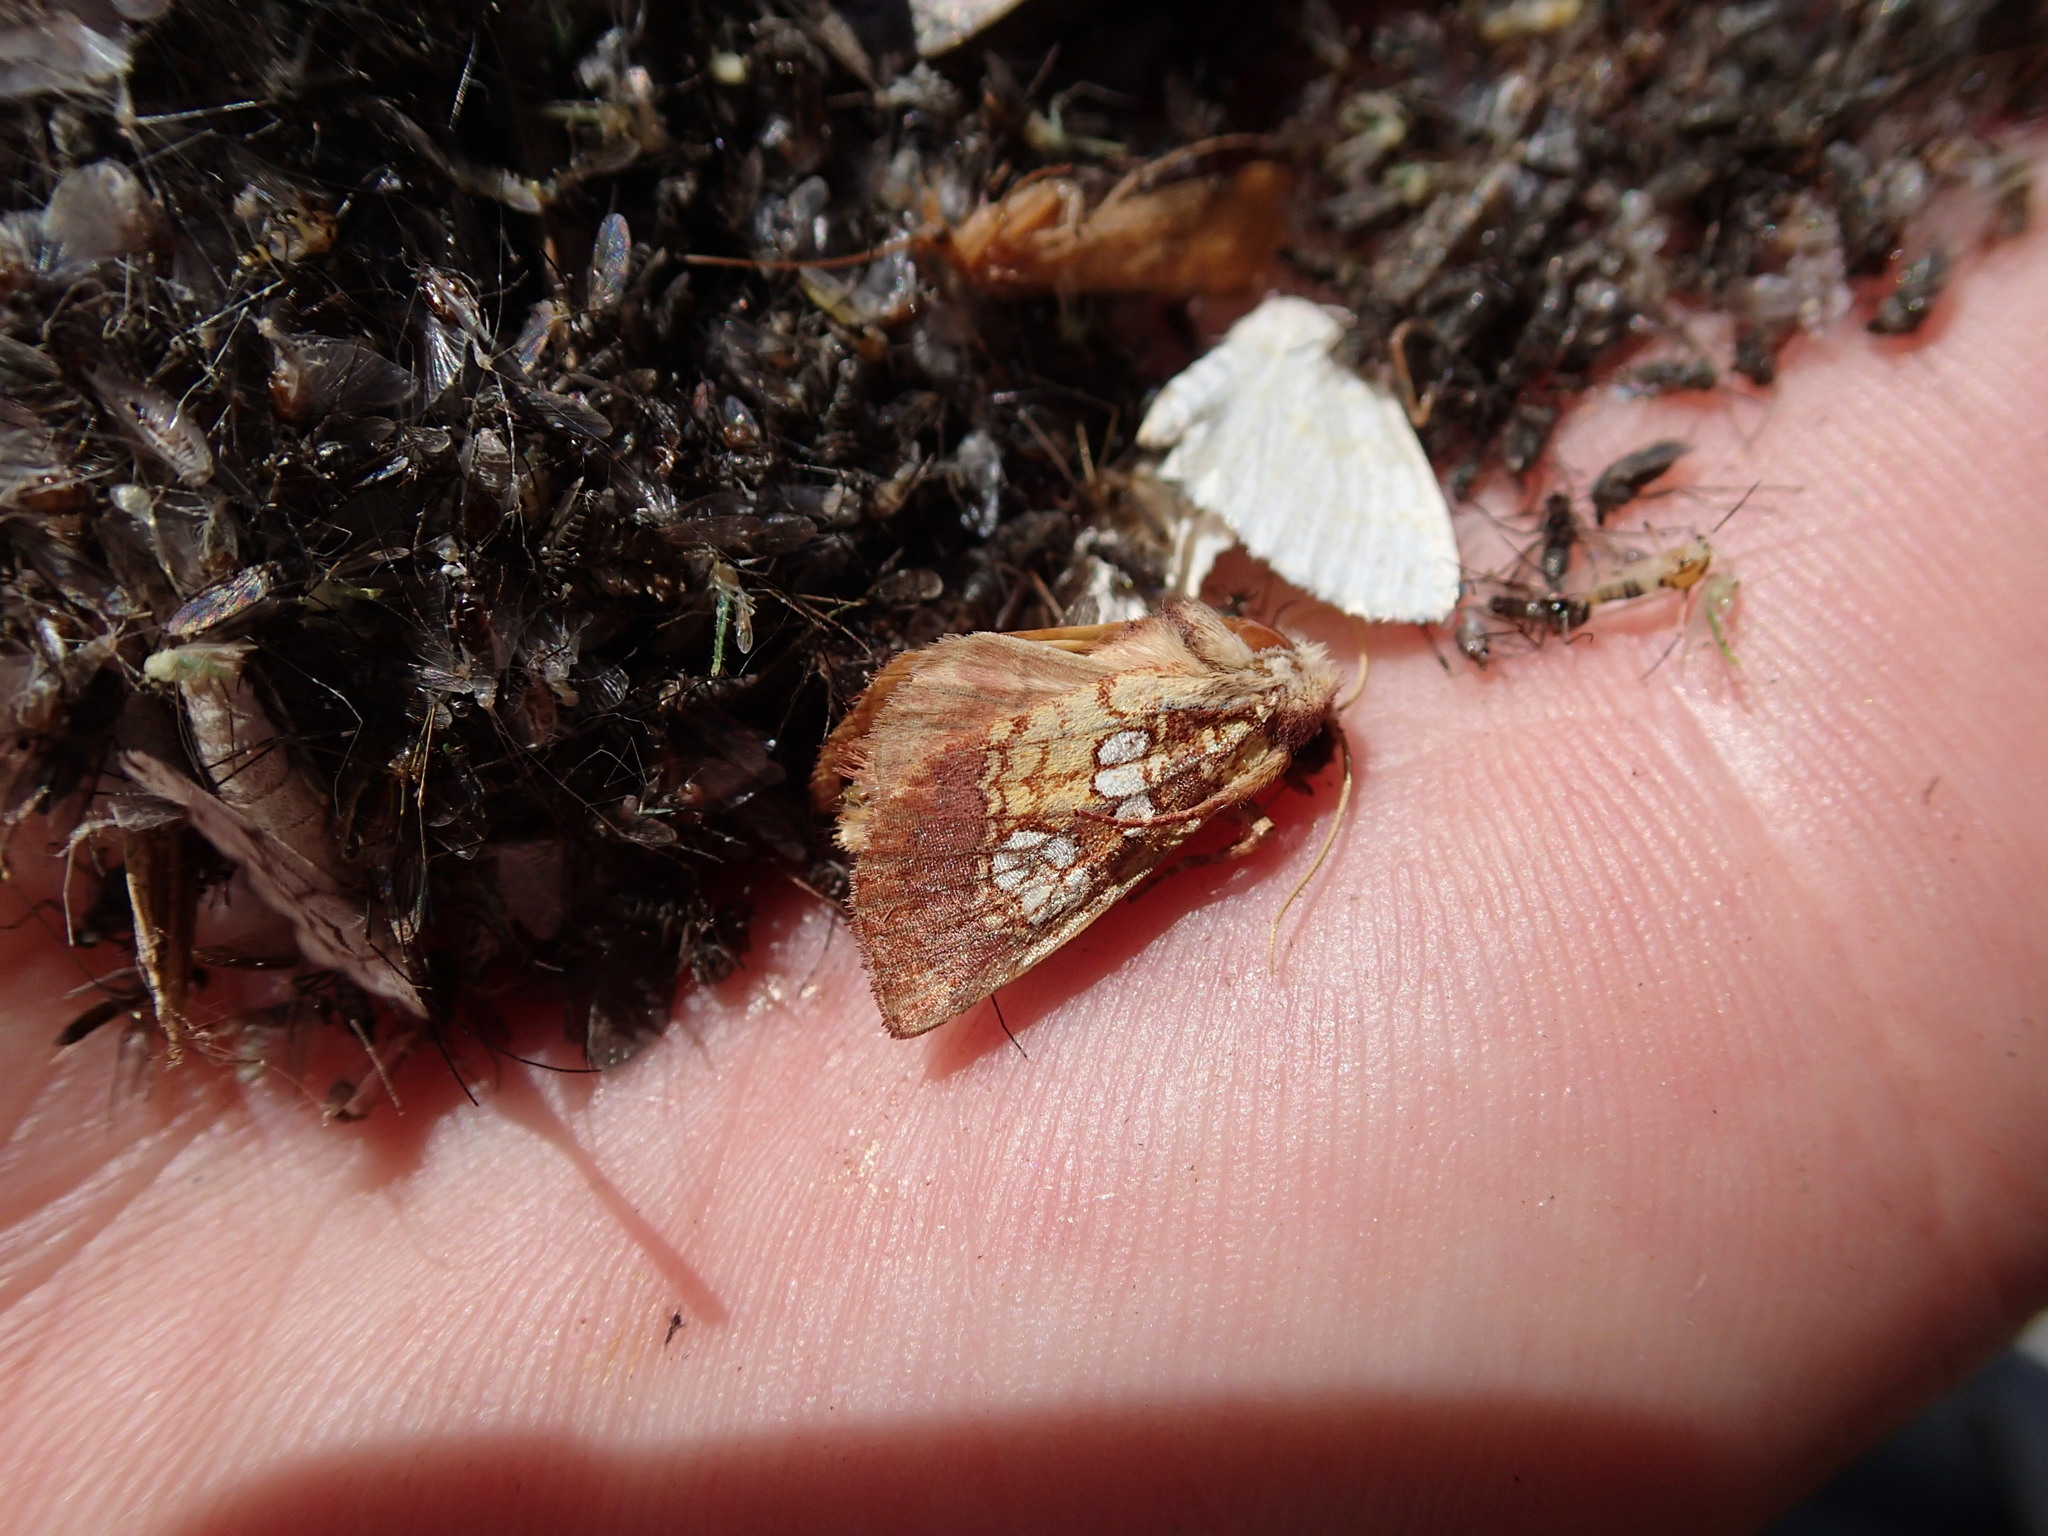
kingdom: Animalia
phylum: Arthropoda
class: Insecta
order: Lepidoptera
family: Noctuidae
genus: Papaipema
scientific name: Papaipema appassionata
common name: Pitcher plant borer moth
